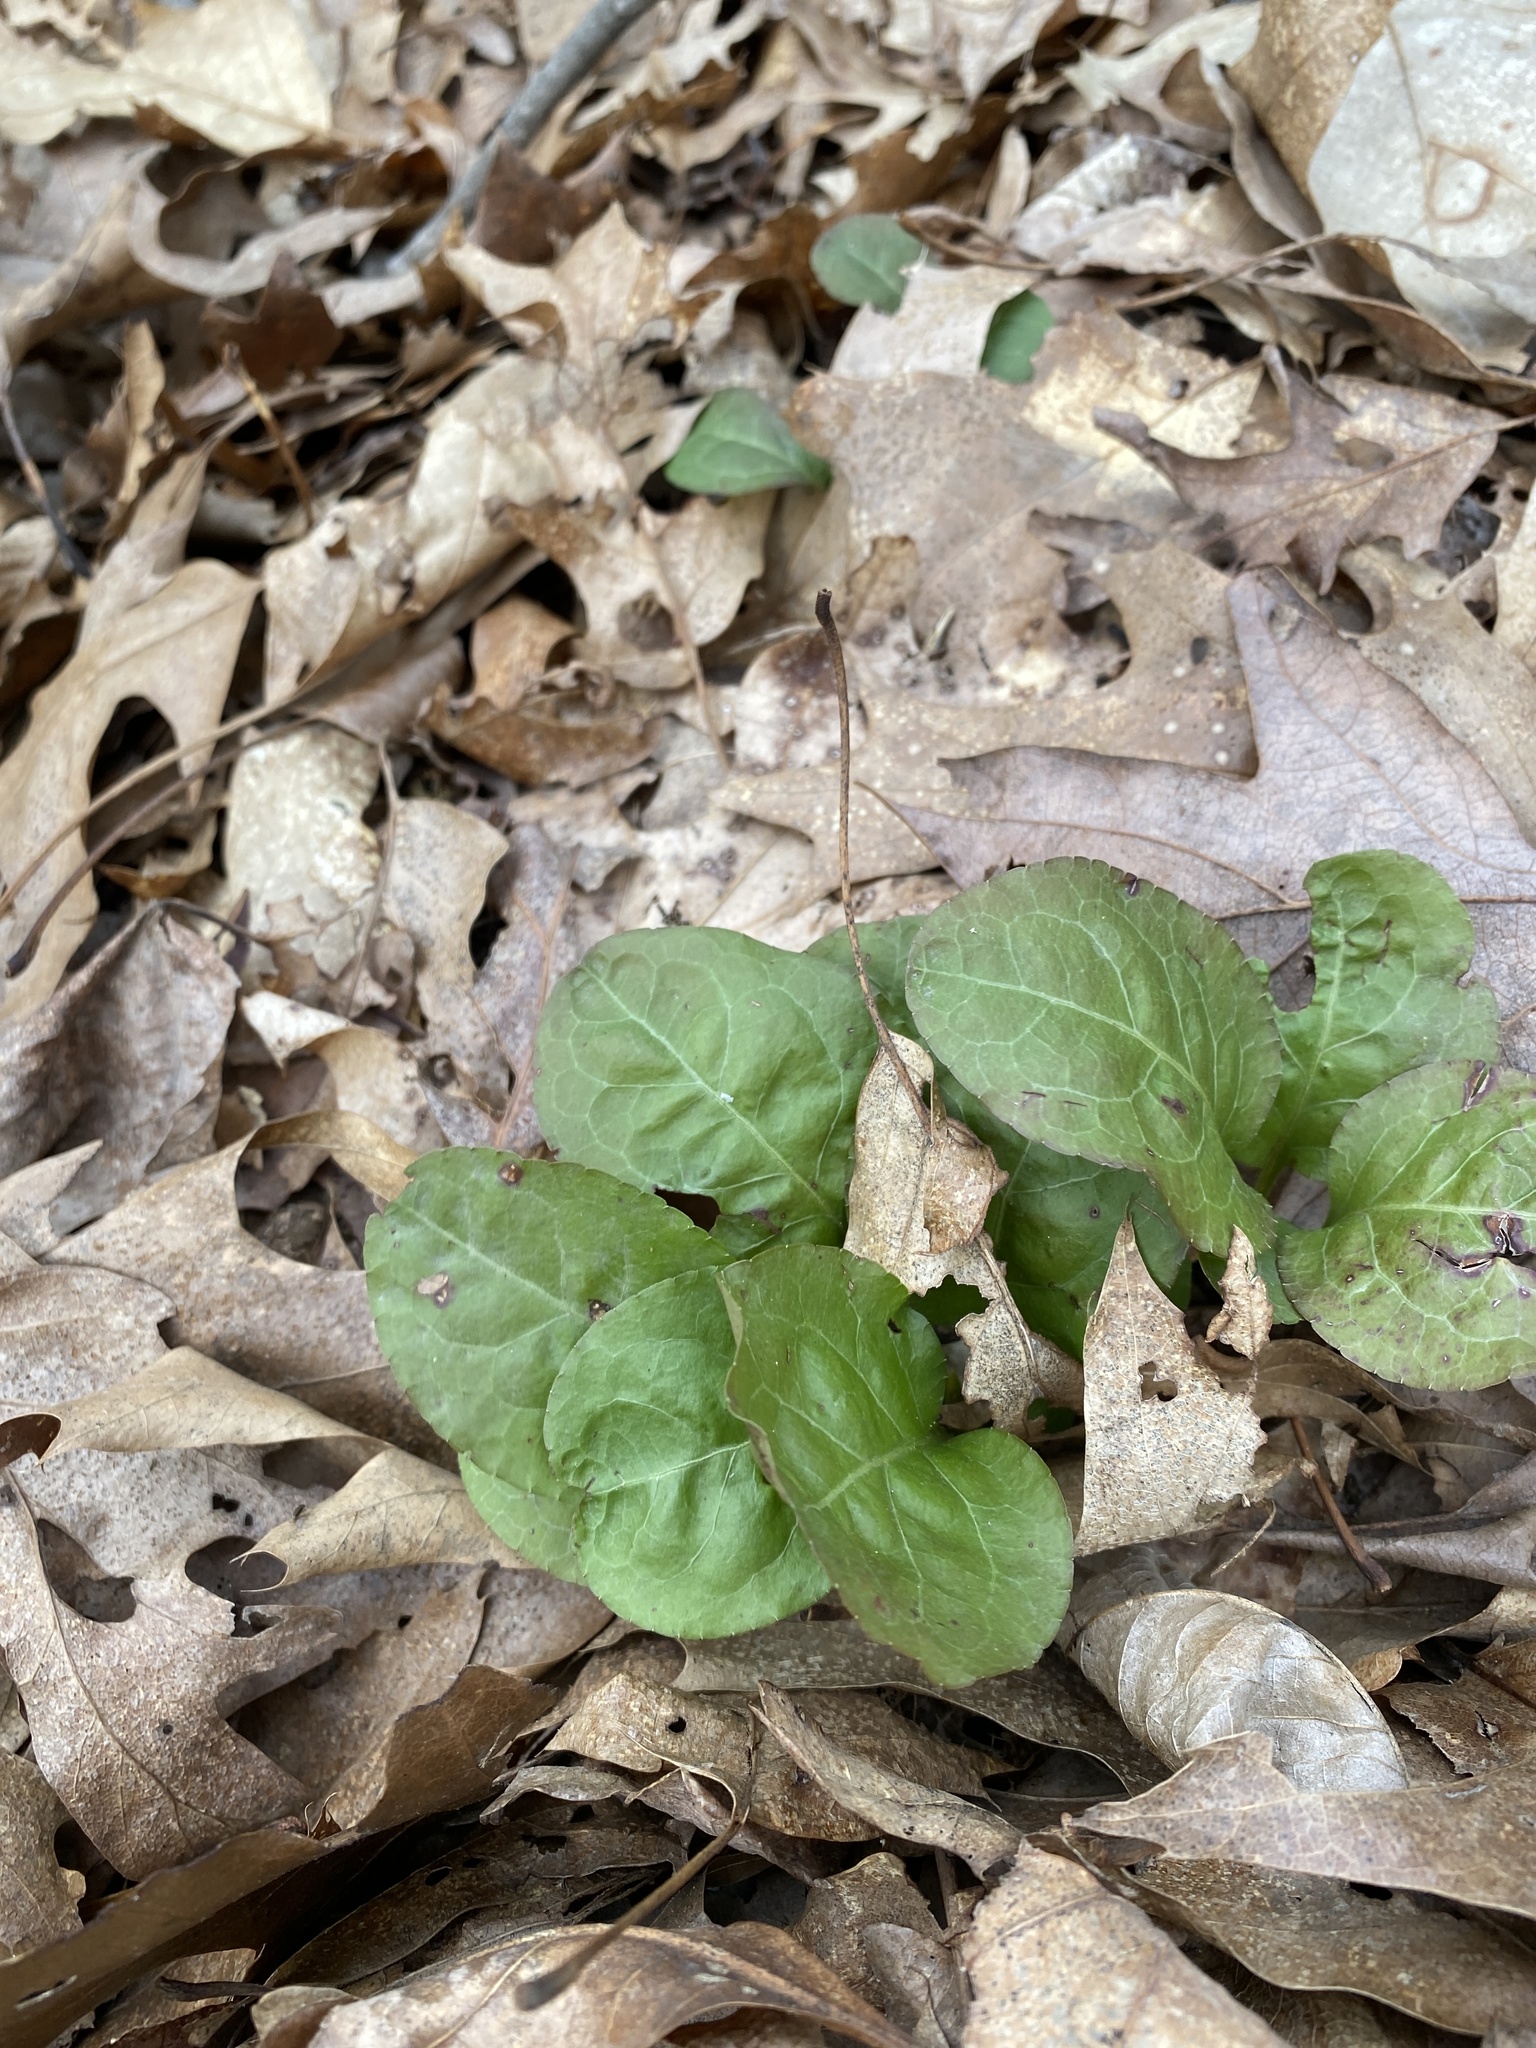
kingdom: Plantae
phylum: Tracheophyta
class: Magnoliopsida
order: Ericales
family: Ericaceae
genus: Pyrola
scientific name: Pyrola elliptica
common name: Shinleaf
